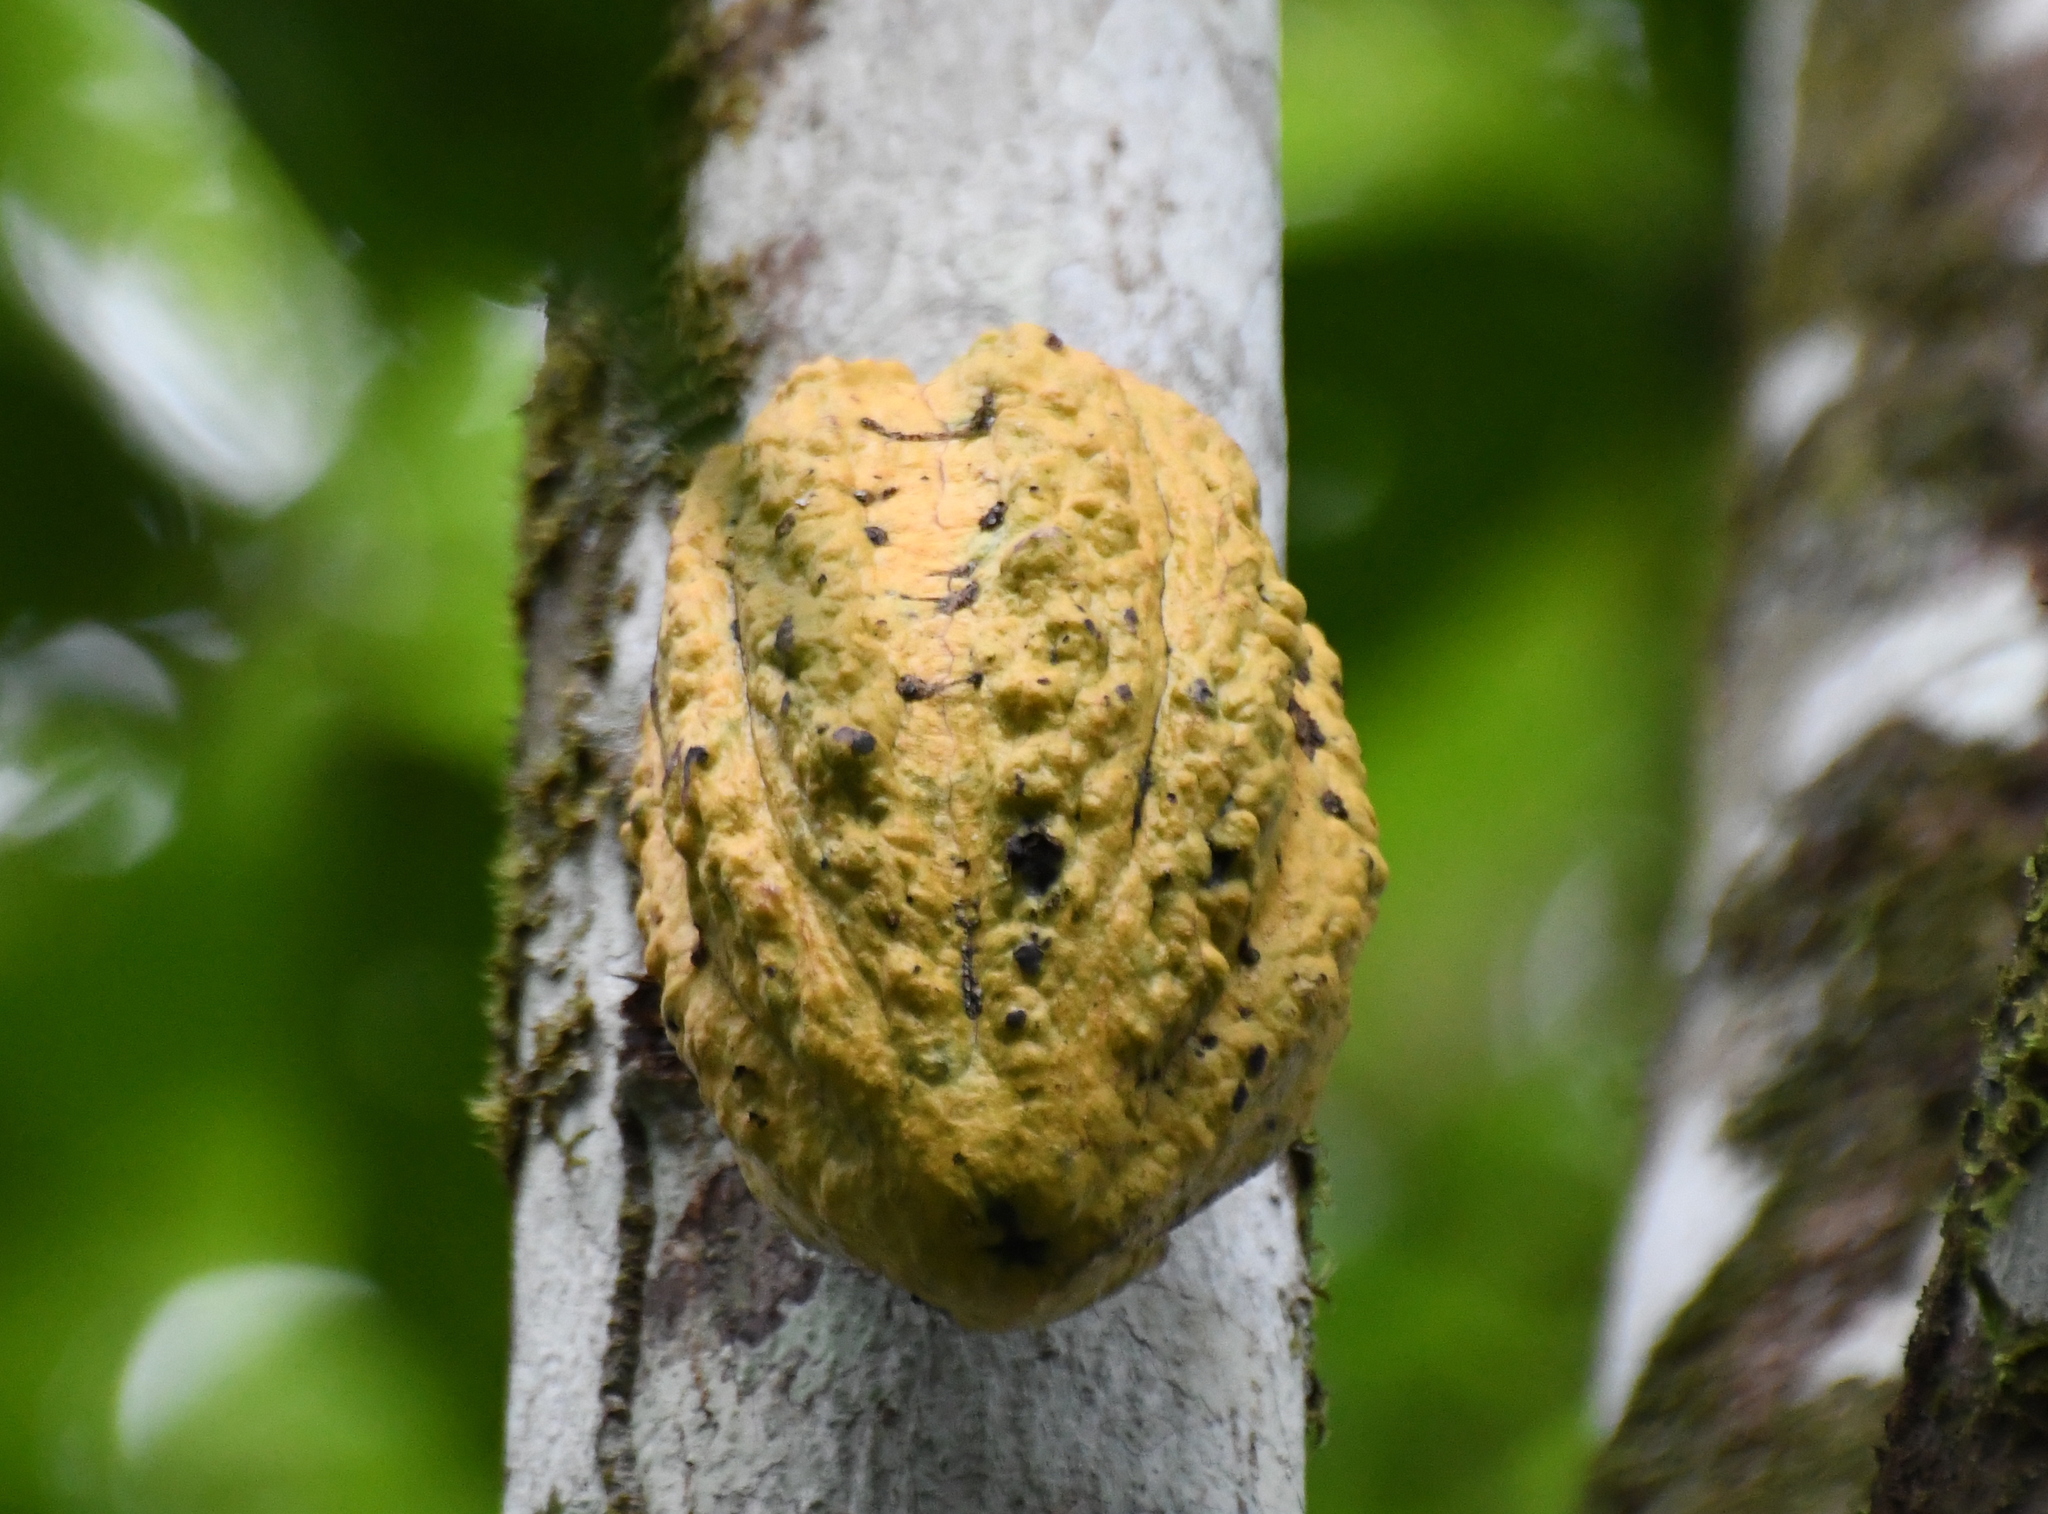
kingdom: Plantae
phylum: Tracheophyta
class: Magnoliopsida
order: Malvales
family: Malvaceae
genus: Theobroma
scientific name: Theobroma cacao
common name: Cocoa
